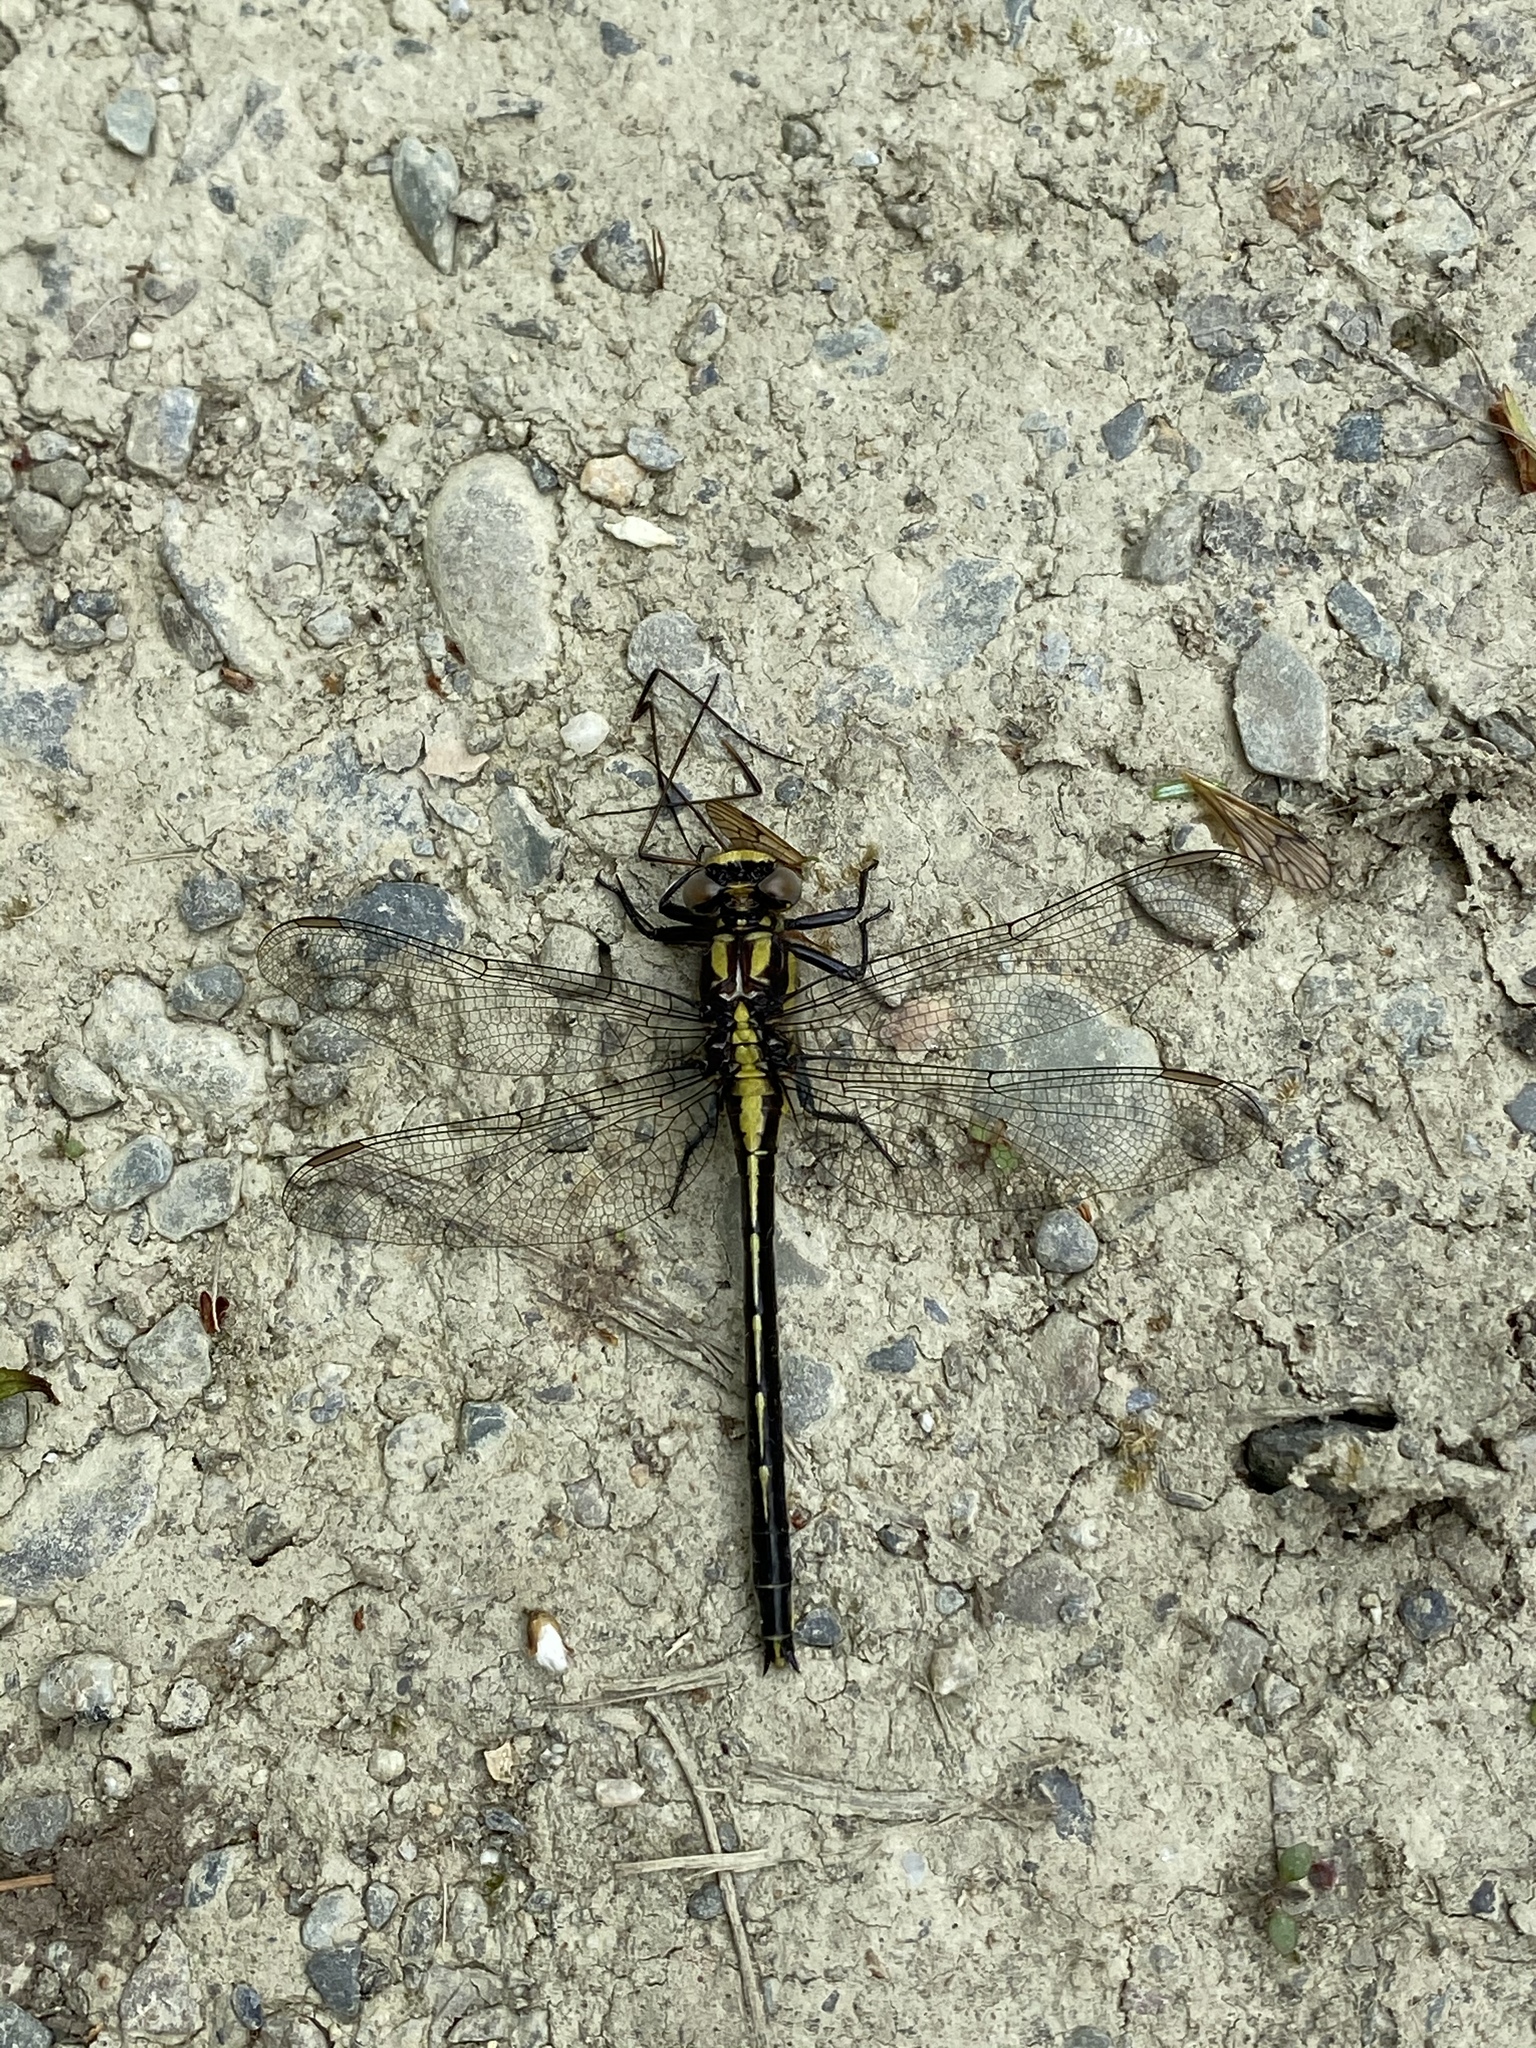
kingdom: Animalia
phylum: Arthropoda
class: Insecta
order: Odonata
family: Gomphidae
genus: Phanogomphus
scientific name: Phanogomphus borealis
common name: Beaverpond clubtail
